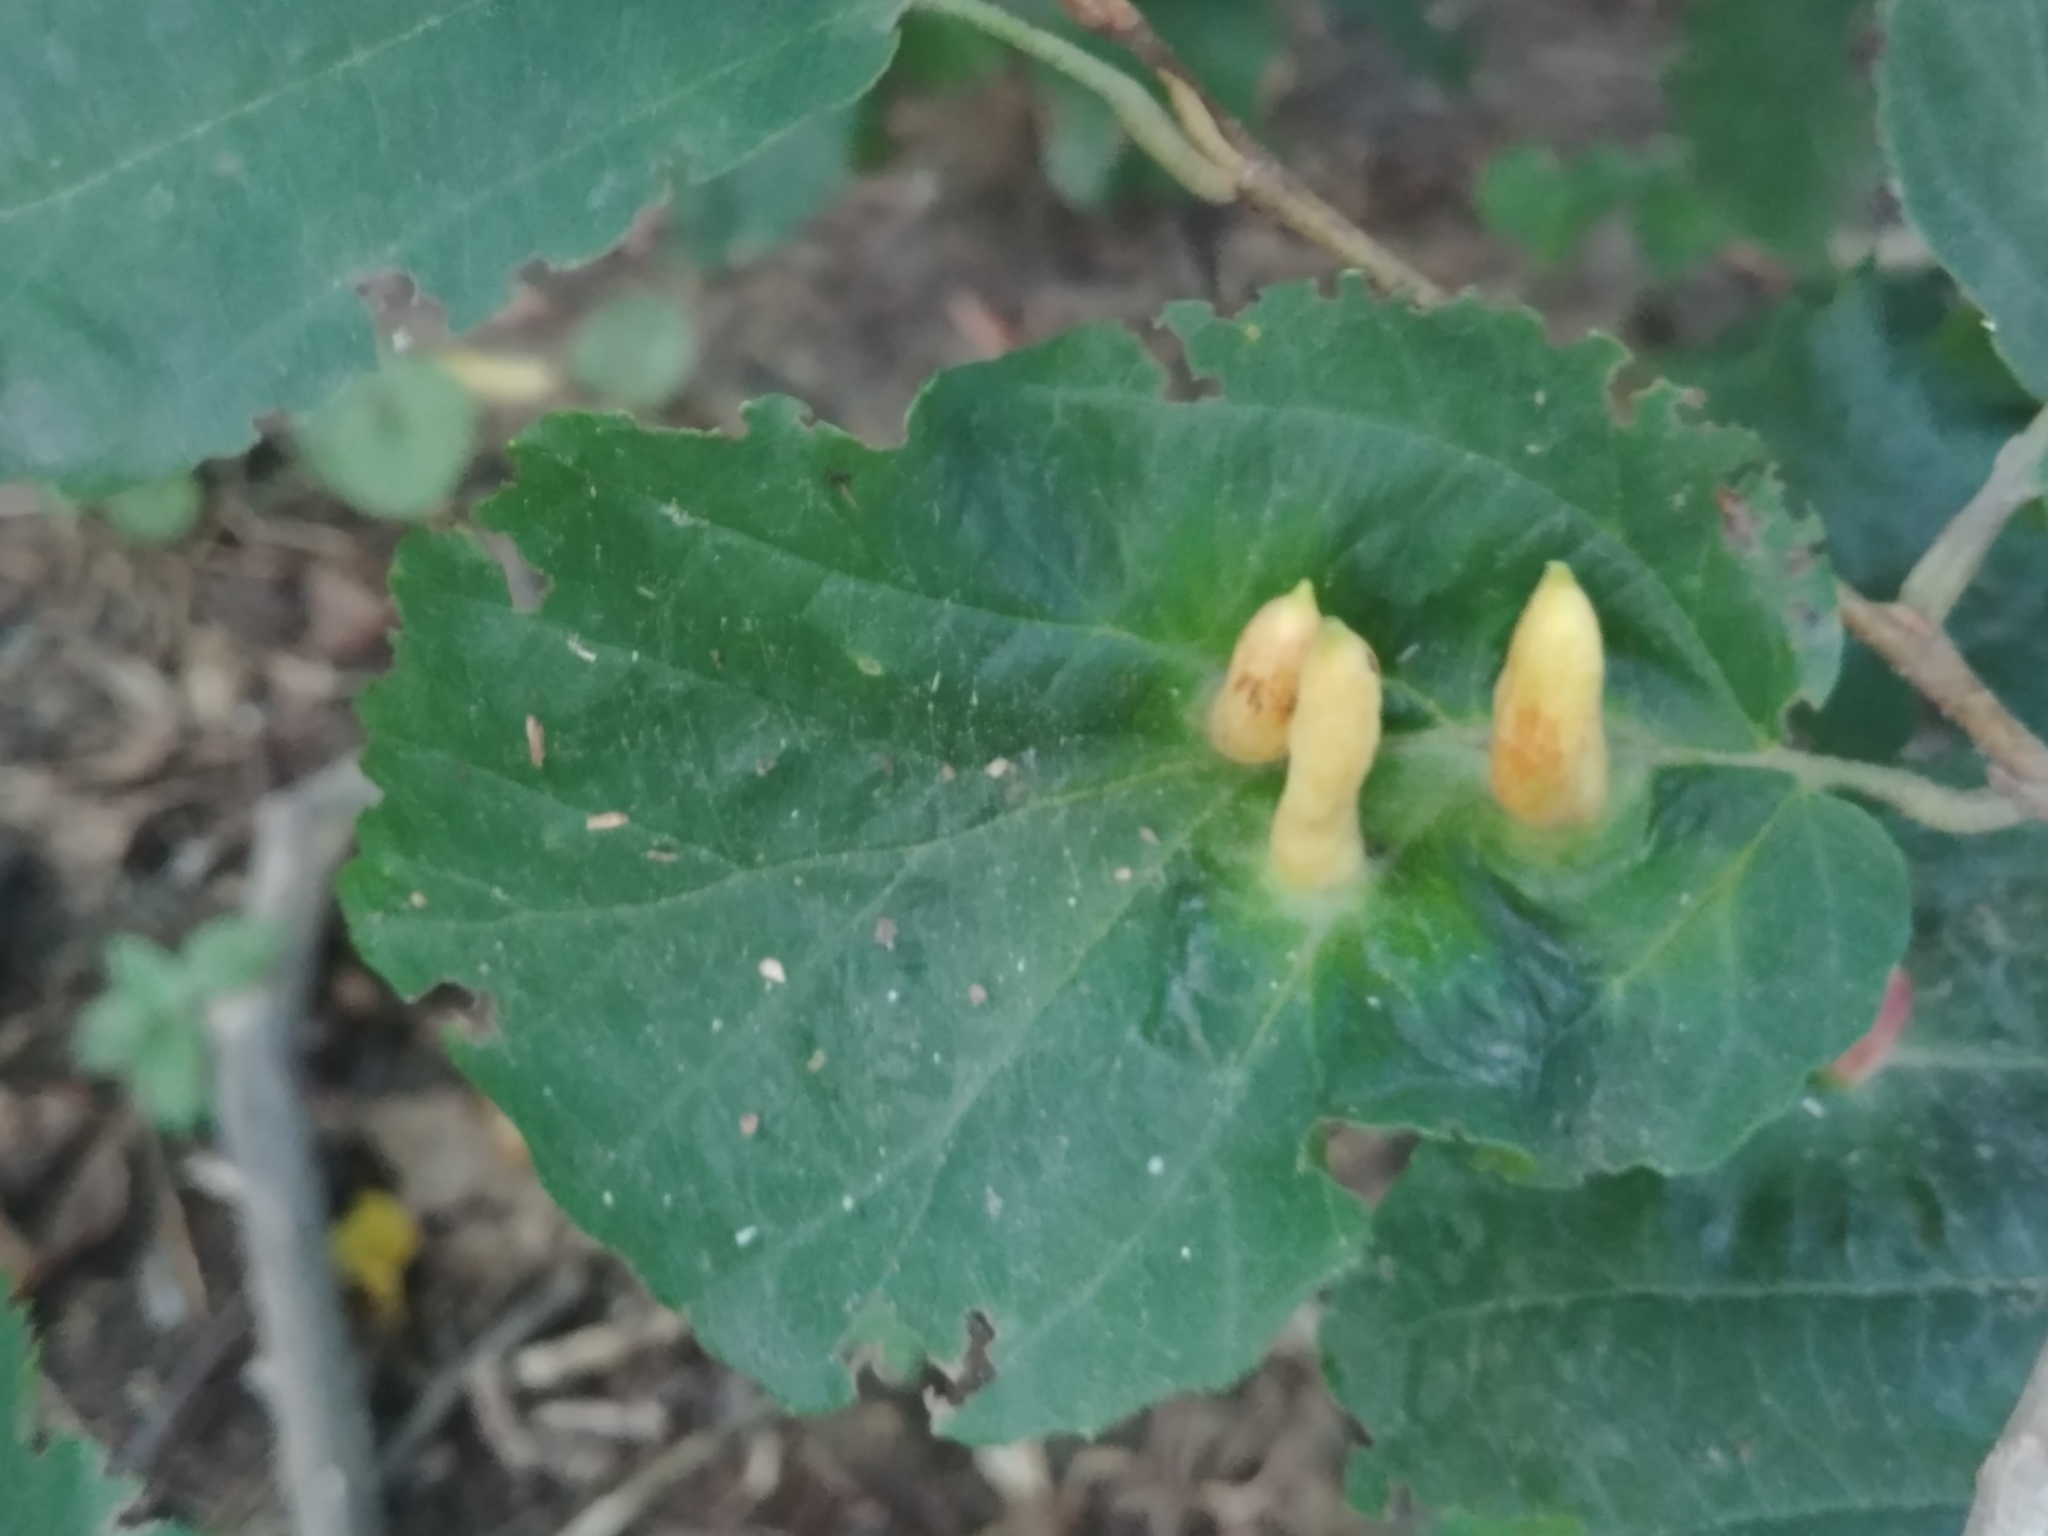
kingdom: Animalia
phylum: Arthropoda
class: Insecta
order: Hemiptera
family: Aphididae
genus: Hormaphis
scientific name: Hormaphis hamamelidis
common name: Witch-hazel cone gall aphid
